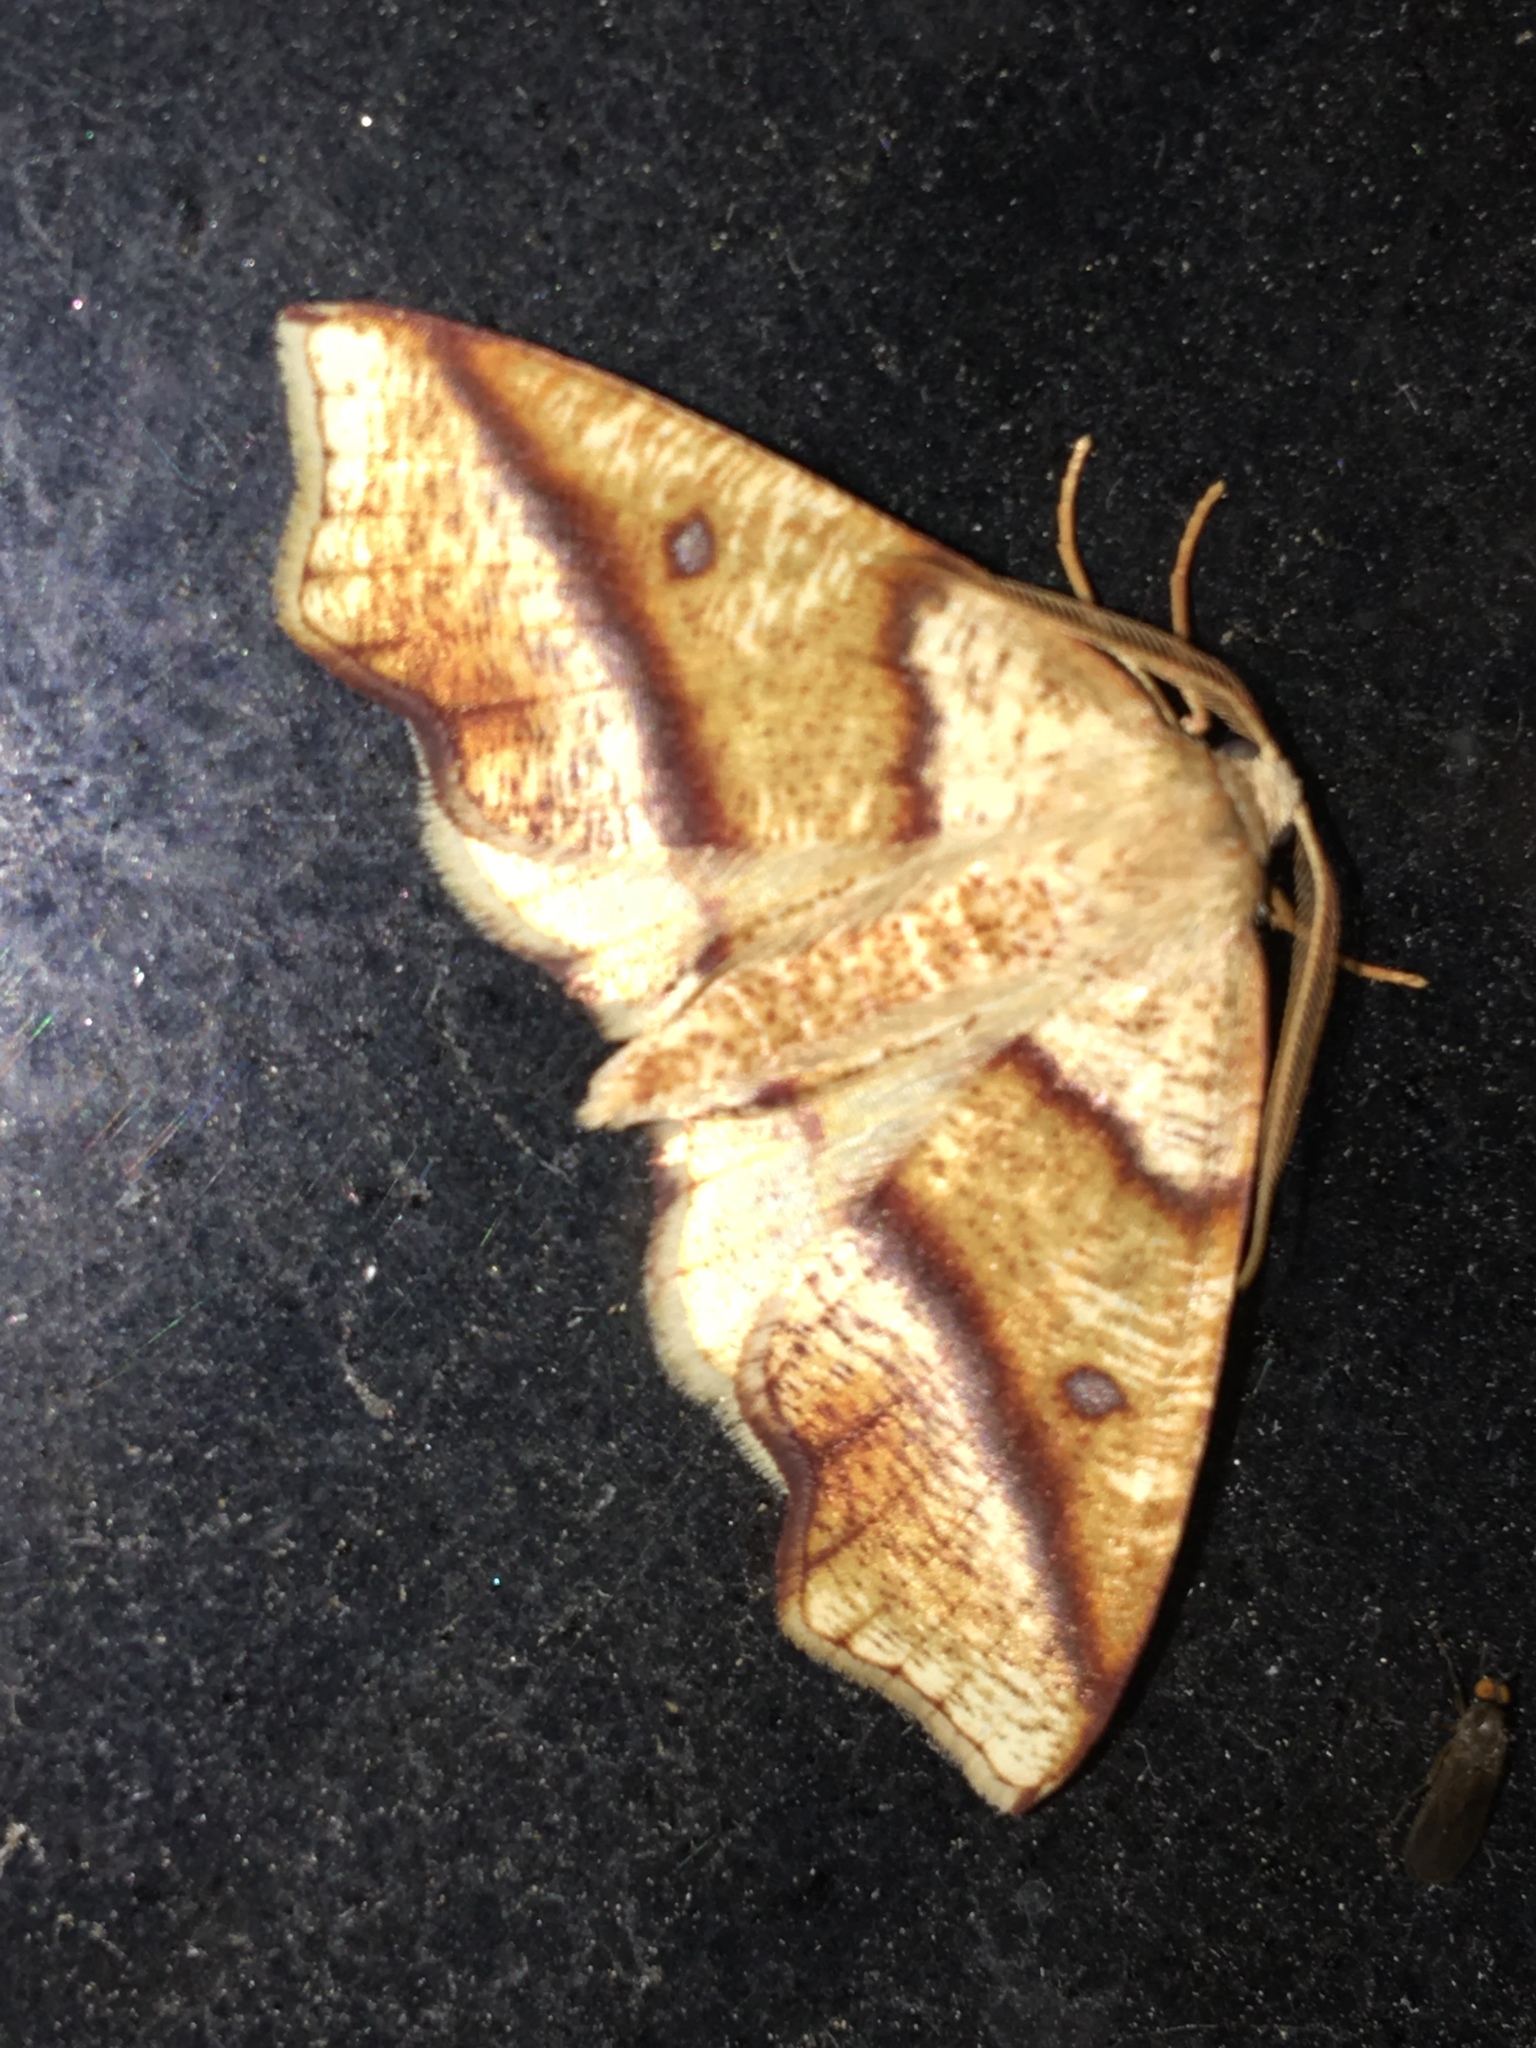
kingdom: Animalia
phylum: Arthropoda
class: Insecta
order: Lepidoptera
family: Geometridae
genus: Plagodis
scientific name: Plagodis alcoolaria
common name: Hollow-spotted plagodis
